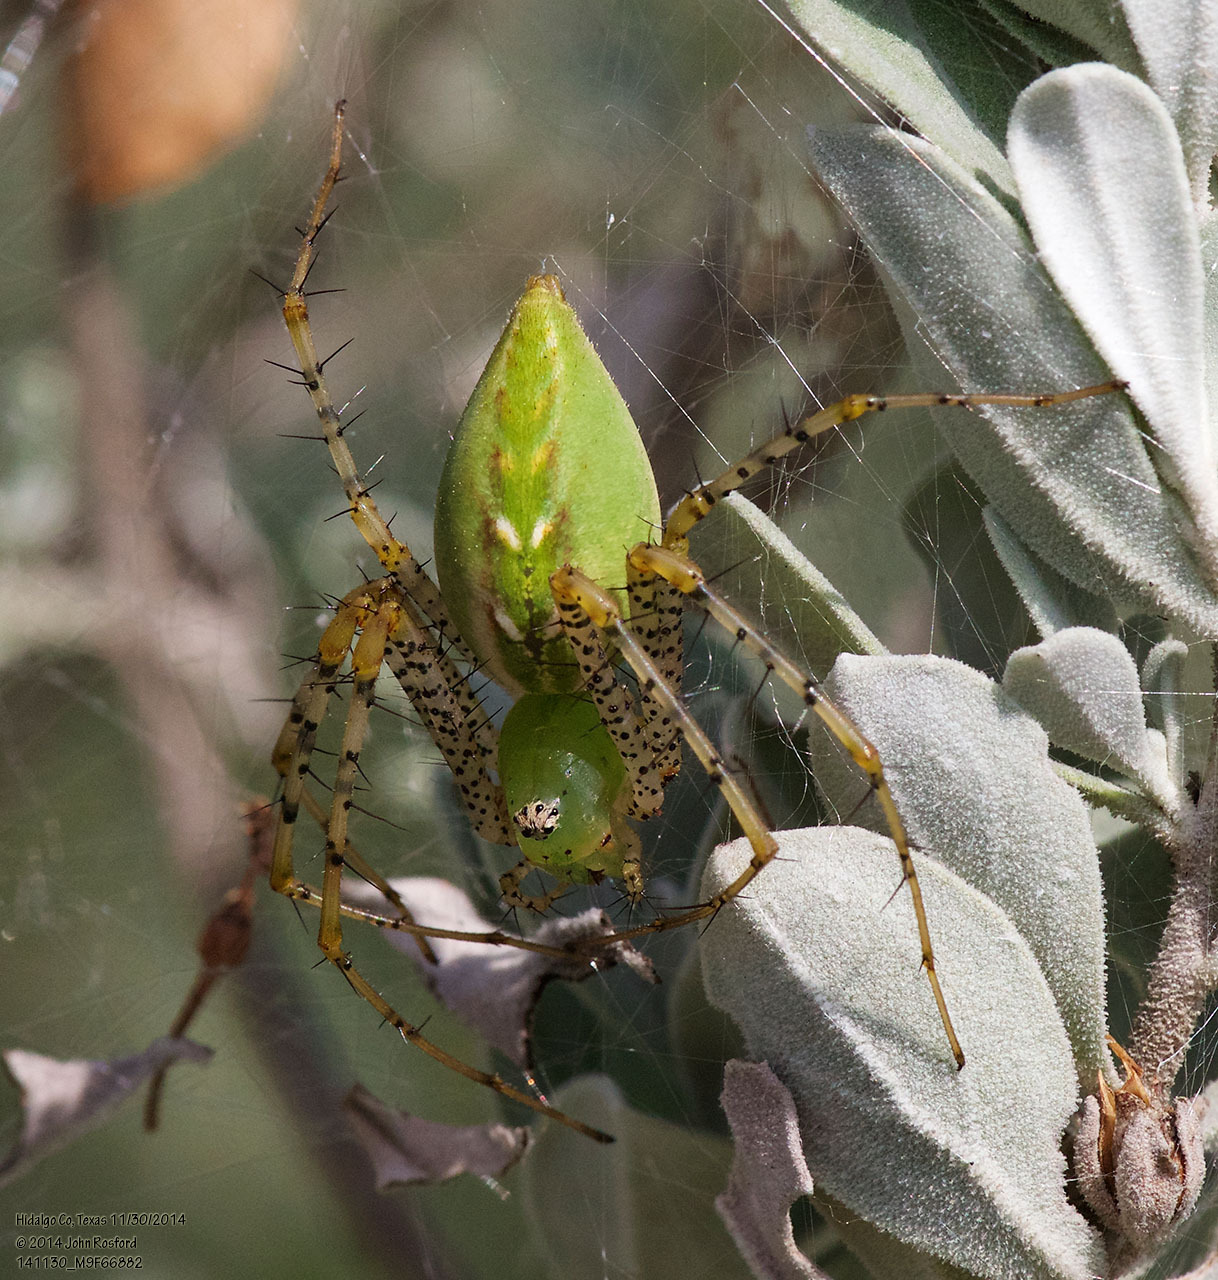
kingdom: Animalia
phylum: Arthropoda
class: Arachnida
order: Araneae
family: Oxyopidae
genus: Peucetia
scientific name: Peucetia viridans
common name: Lynx spiders
